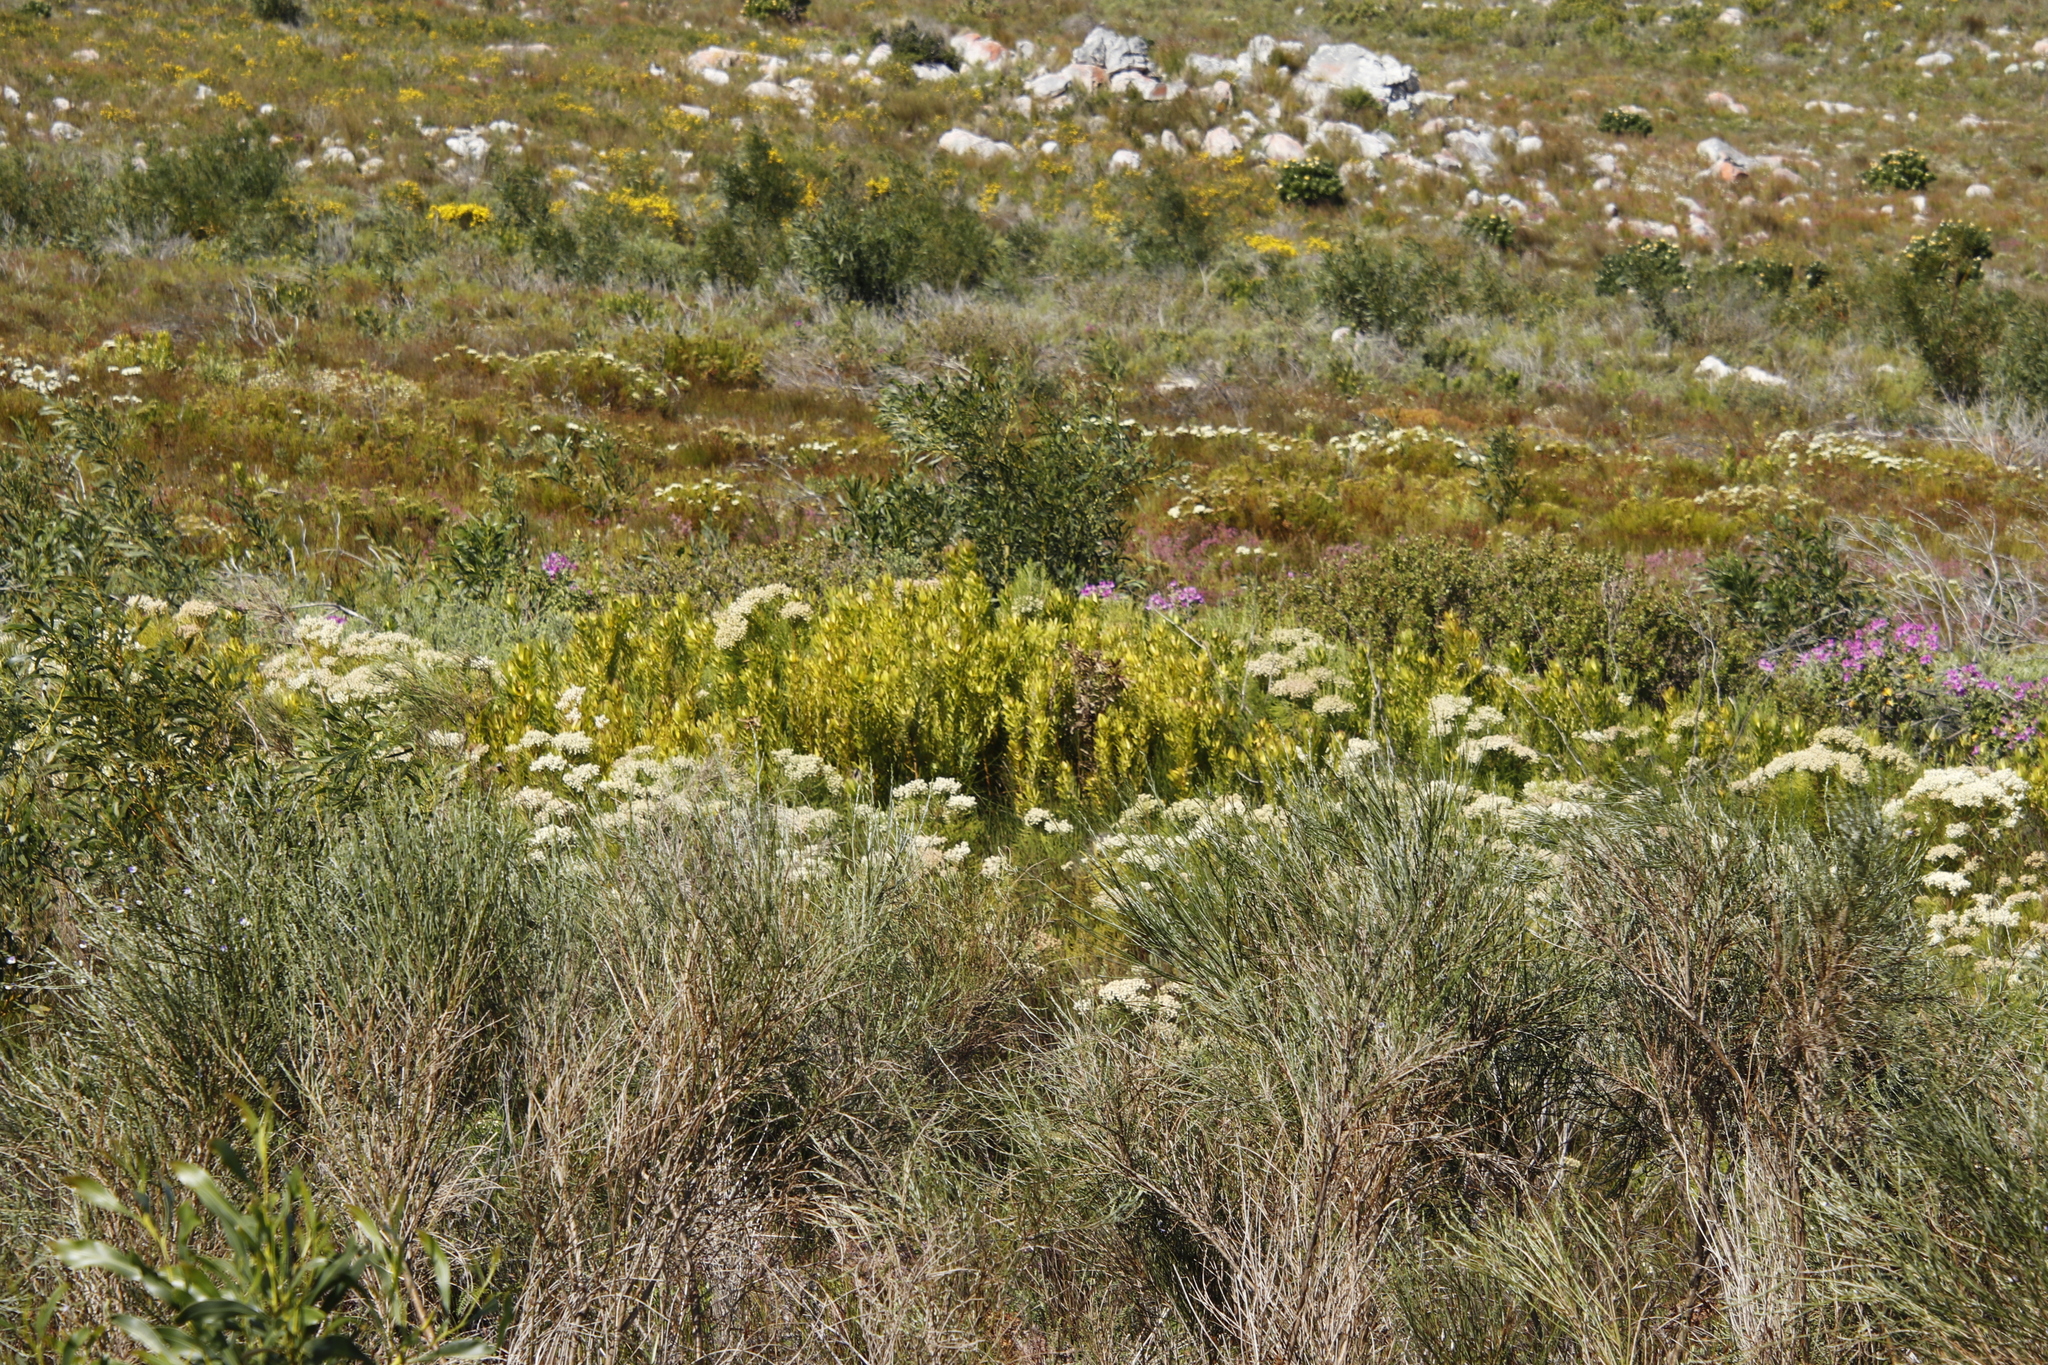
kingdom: Plantae
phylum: Tracheophyta
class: Magnoliopsida
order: Proteales
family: Proteaceae
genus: Leucadendron
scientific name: Leucadendron laureolum
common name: Golden sunshinebush
